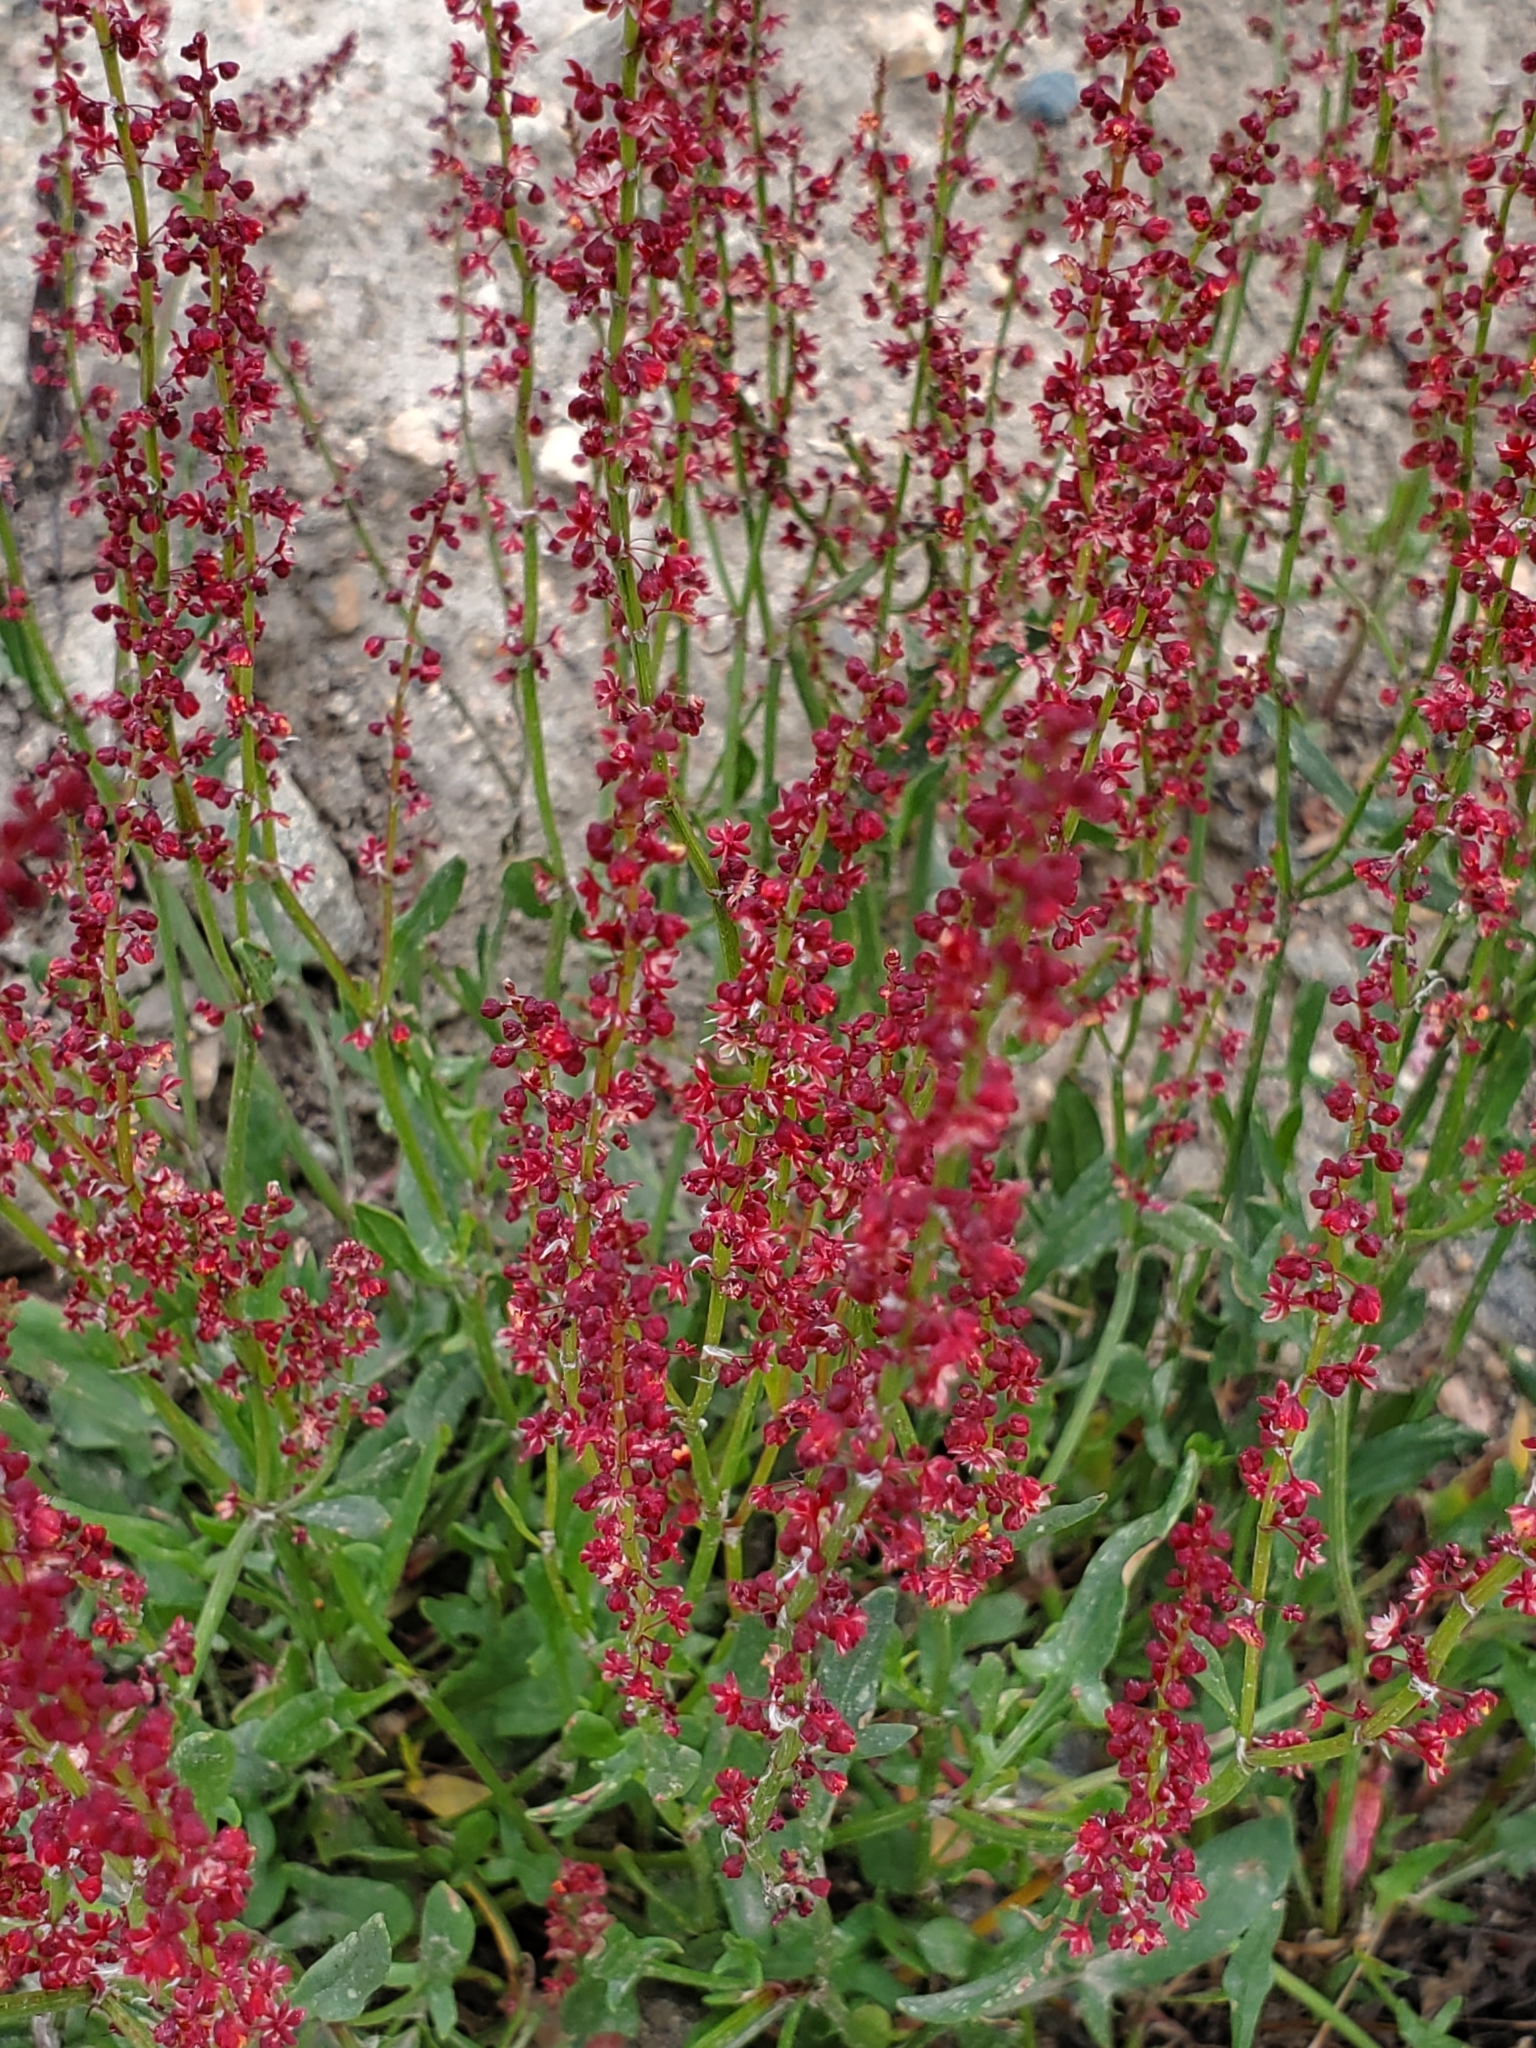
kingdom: Plantae
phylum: Tracheophyta
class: Magnoliopsida
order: Caryophyllales
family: Polygonaceae
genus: Rumex
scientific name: Rumex acetosella
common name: Common sheep sorrel
